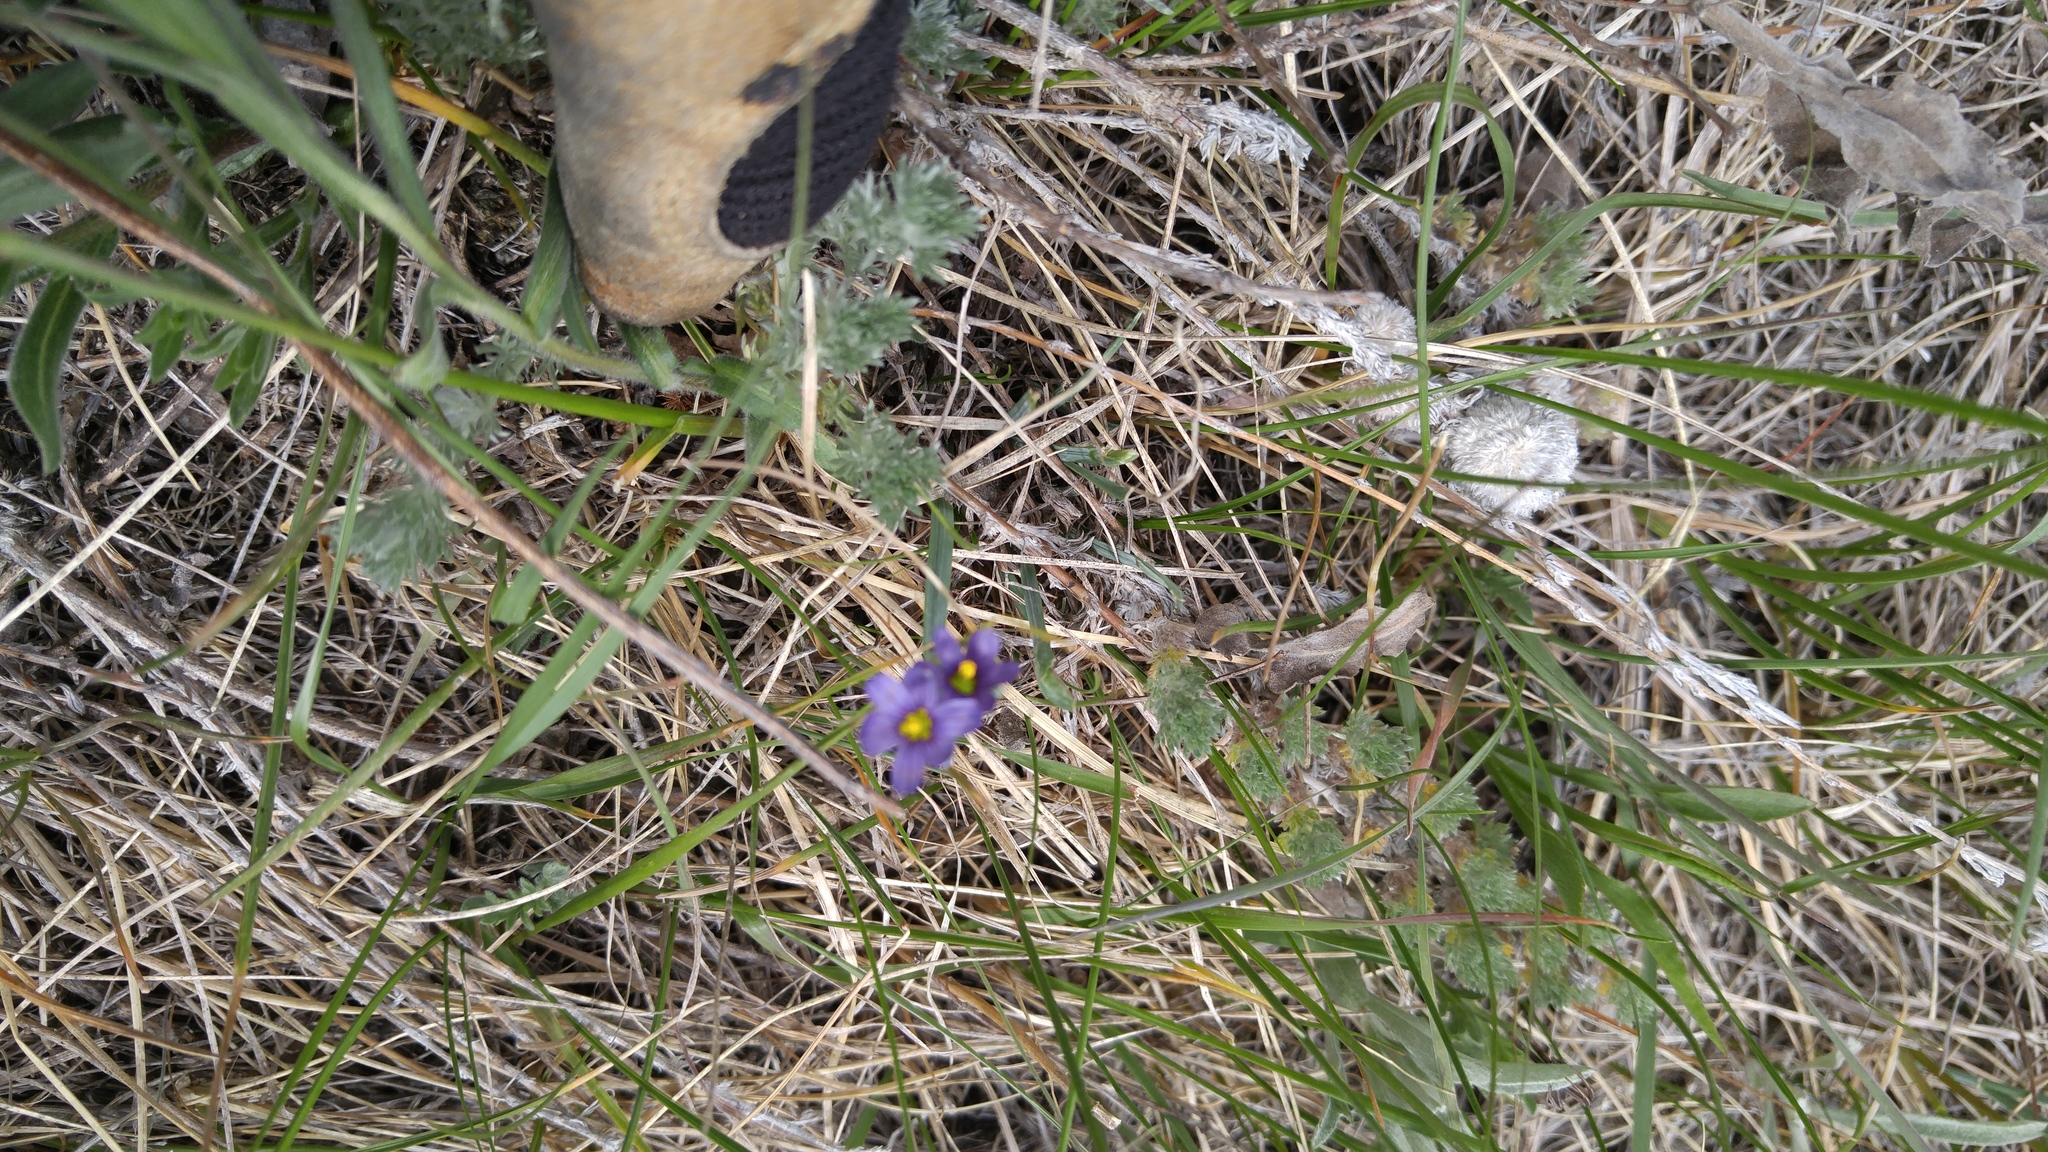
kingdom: Plantae
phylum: Tracheophyta
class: Liliopsida
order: Asparagales
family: Iridaceae
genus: Sisyrinchium
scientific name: Sisyrinchium montanum
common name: American blue-eyed-grass
